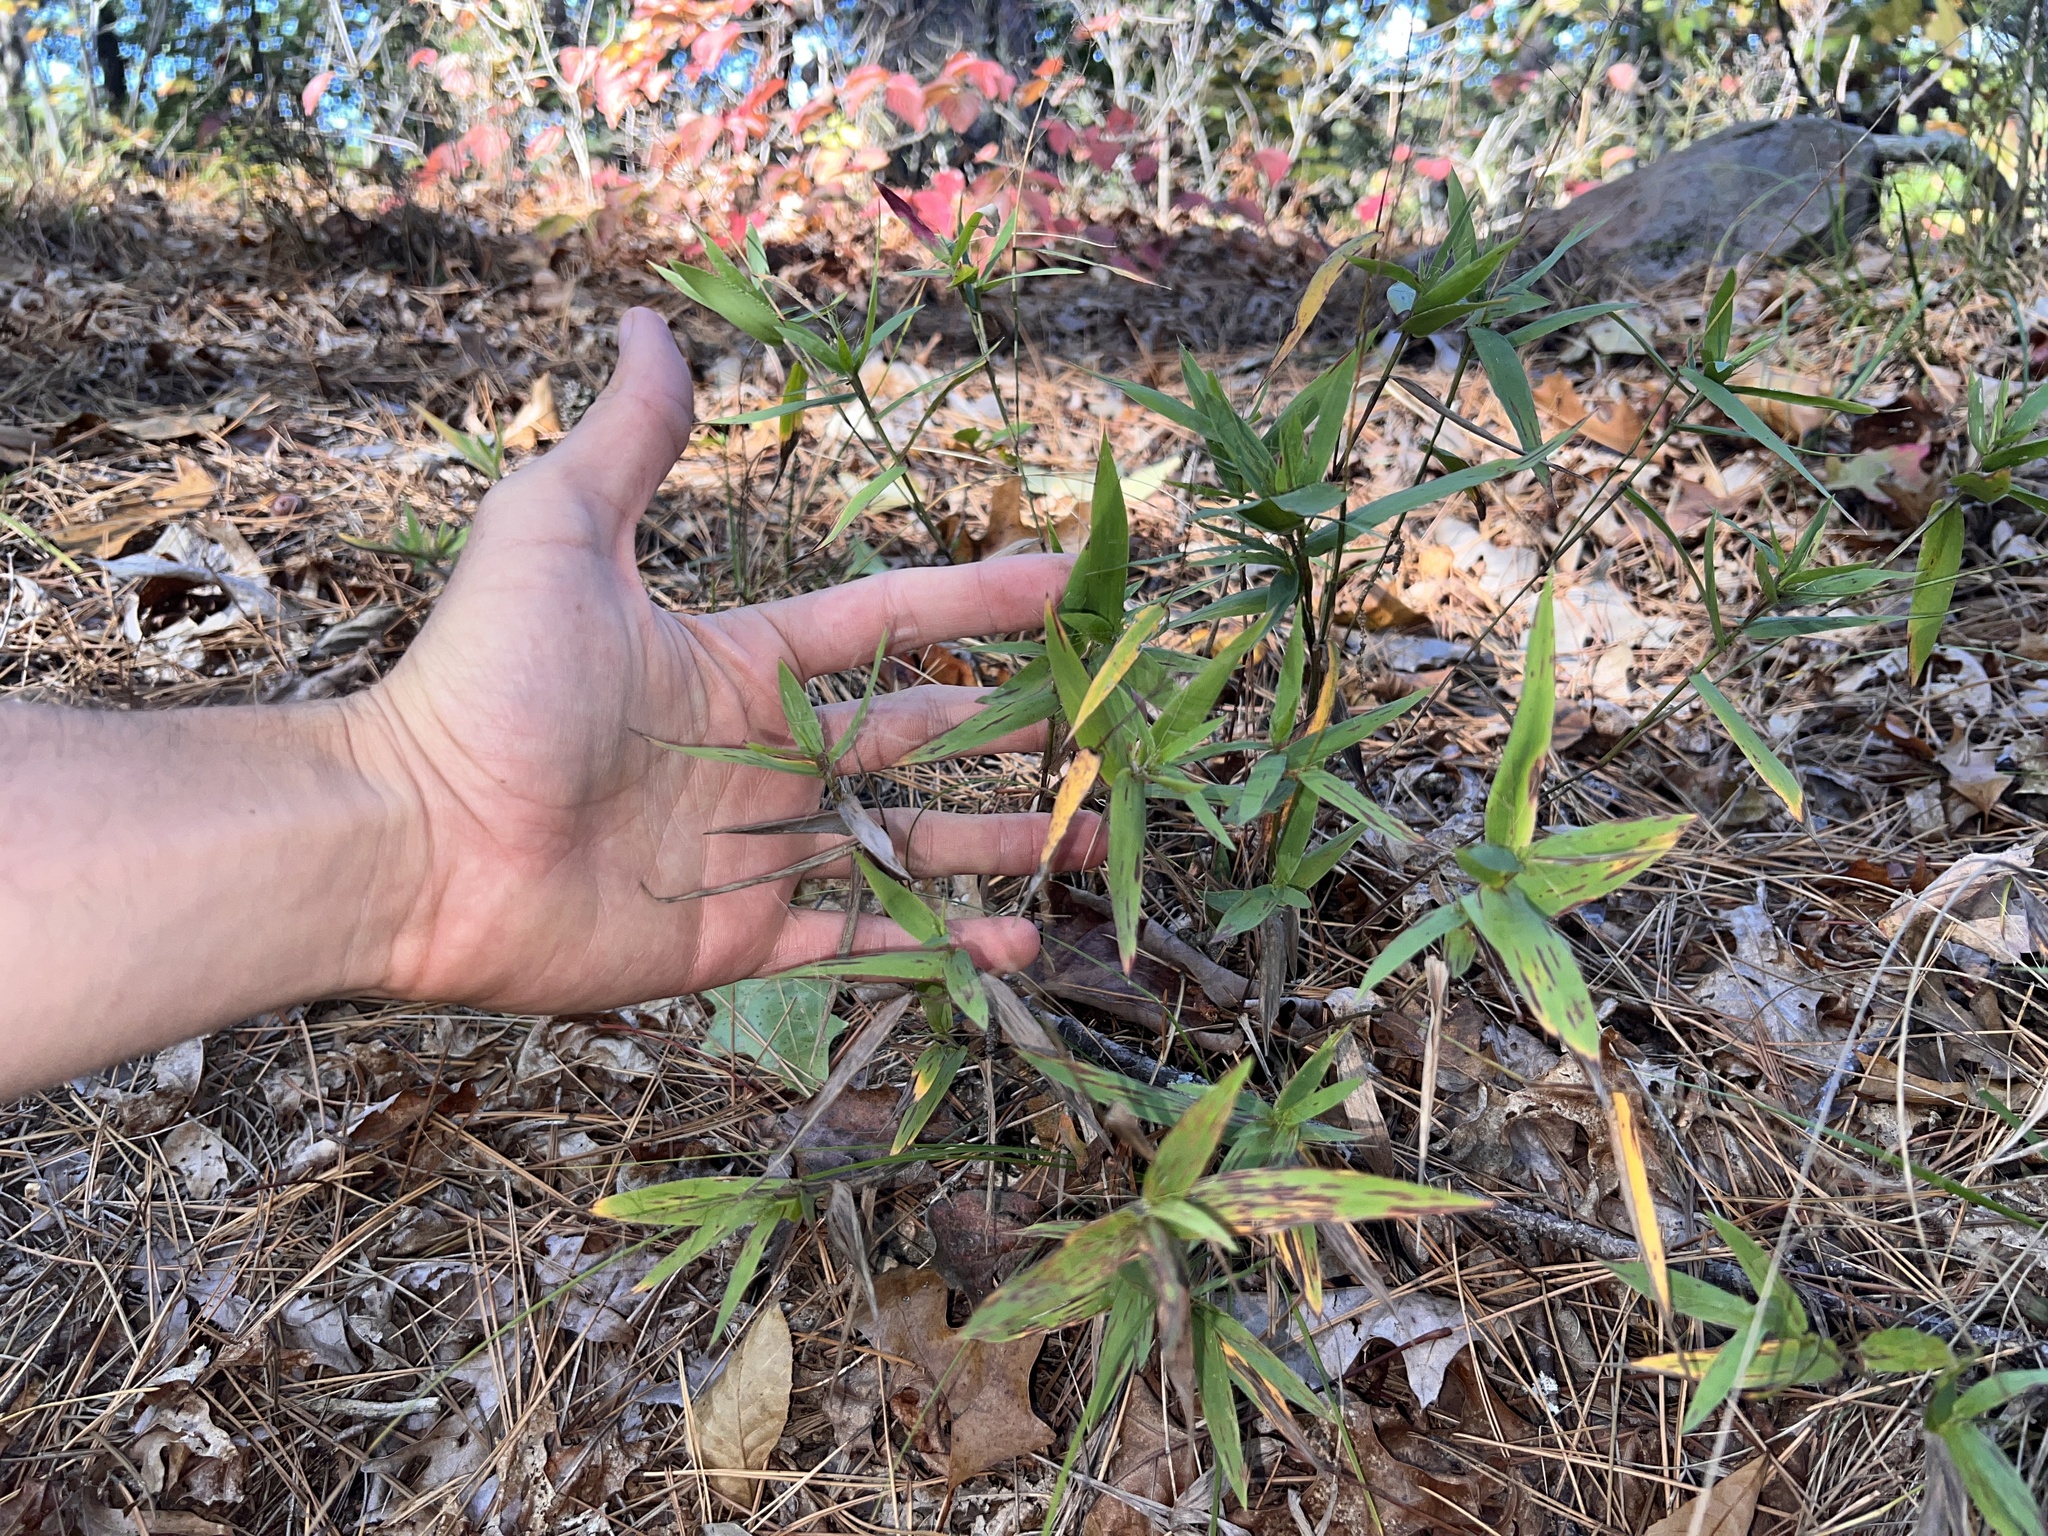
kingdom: Plantae
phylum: Tracheophyta
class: Liliopsida
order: Poales
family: Poaceae
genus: Dichanthelium
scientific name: Dichanthelium commutatum
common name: Variable witchgrass
